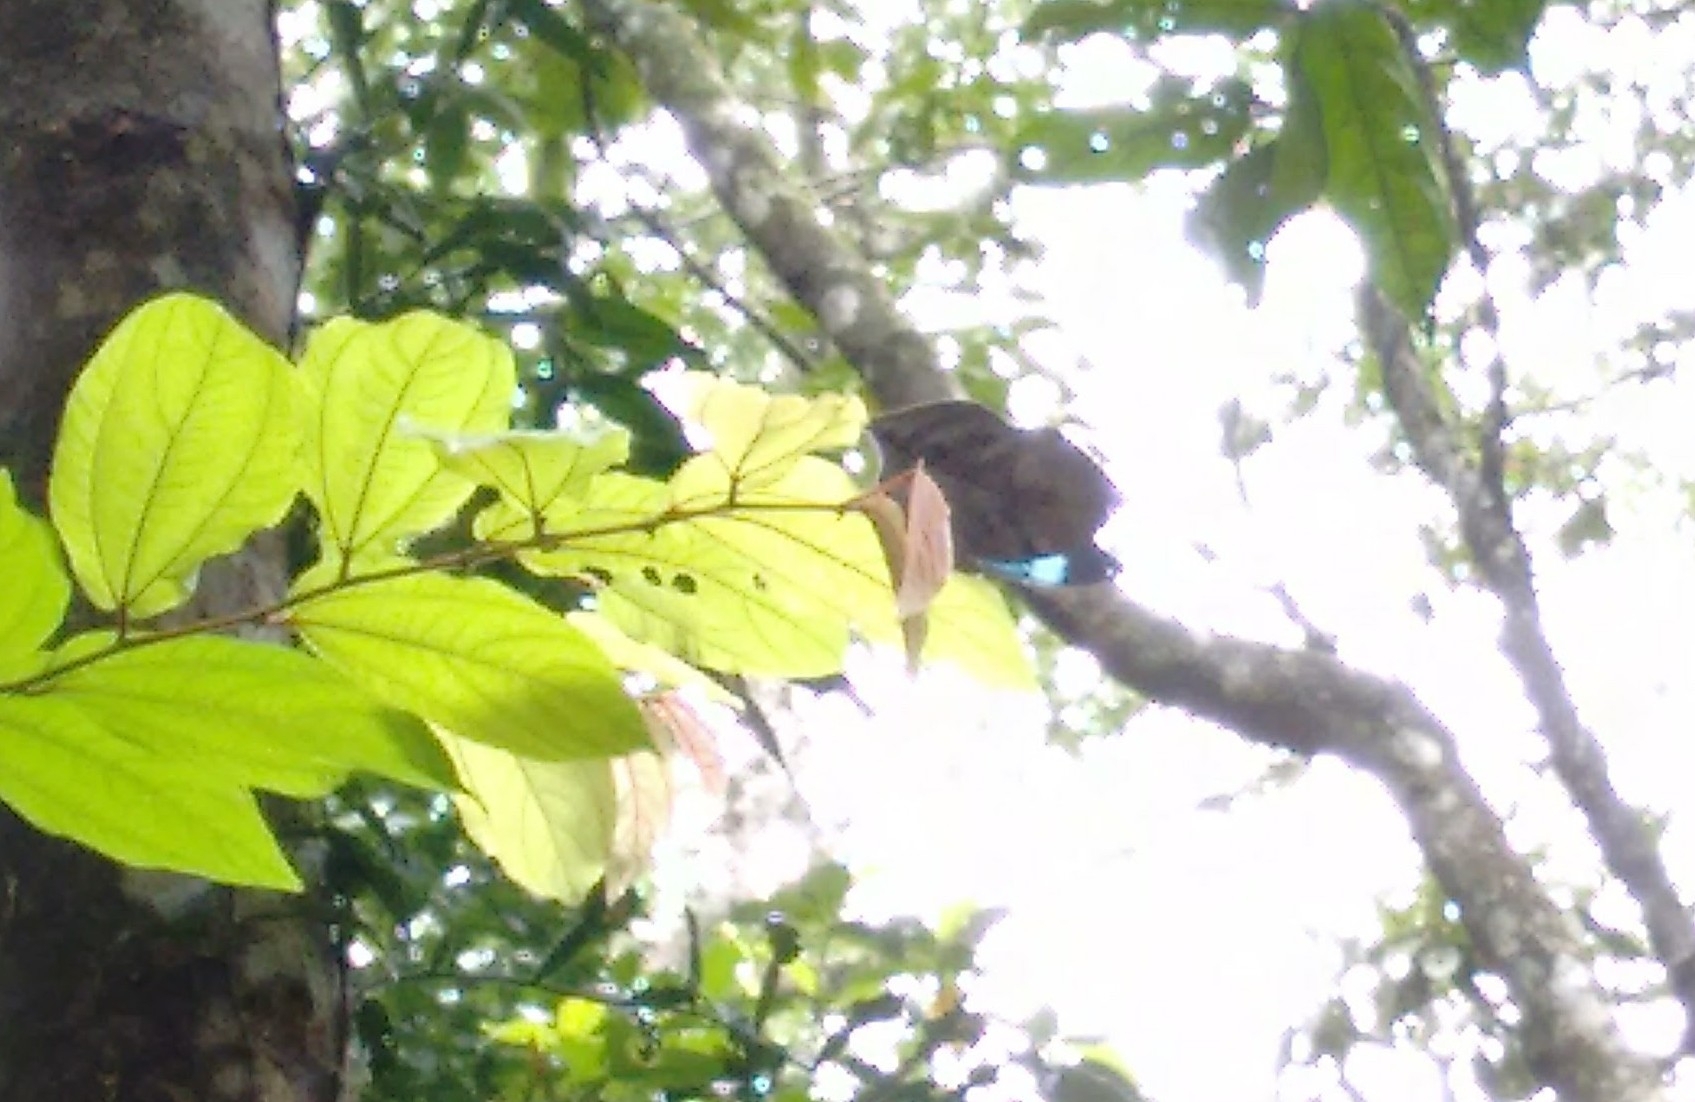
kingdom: Animalia
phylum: Arthropoda
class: Insecta
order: Lepidoptera
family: Nymphalidae
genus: Kallima
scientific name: Kallima horsfieldii
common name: Sahyadri blue oakleaf
